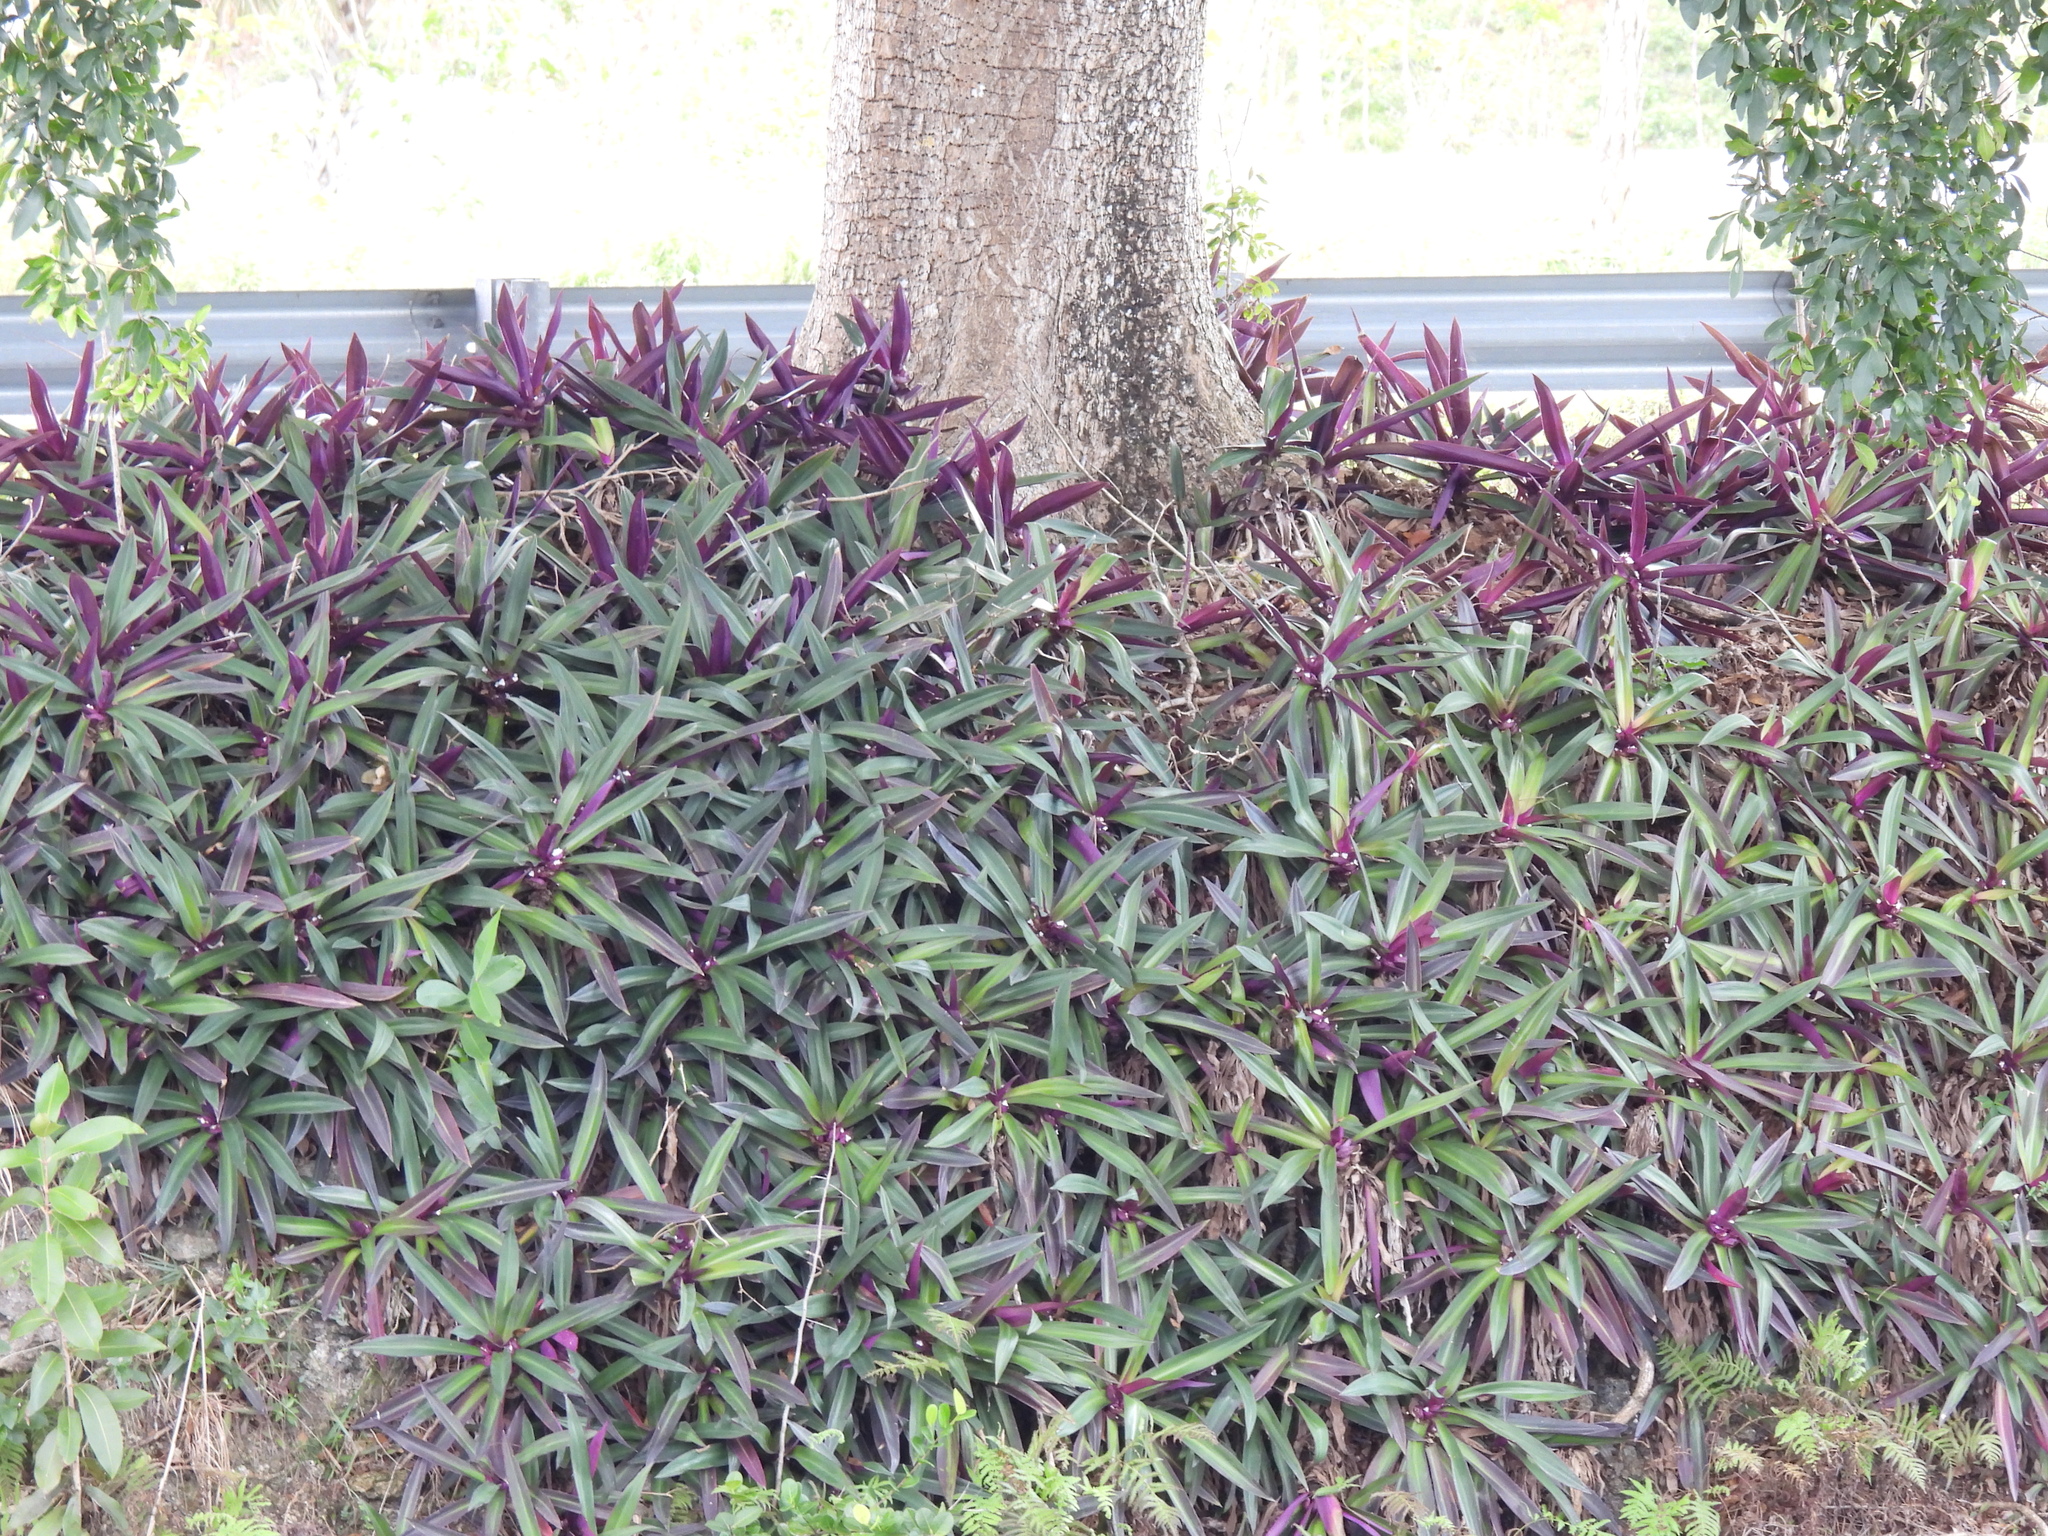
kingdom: Plantae
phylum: Tracheophyta
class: Liliopsida
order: Commelinales
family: Commelinaceae
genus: Tradescantia
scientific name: Tradescantia spathacea
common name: Boatlily
